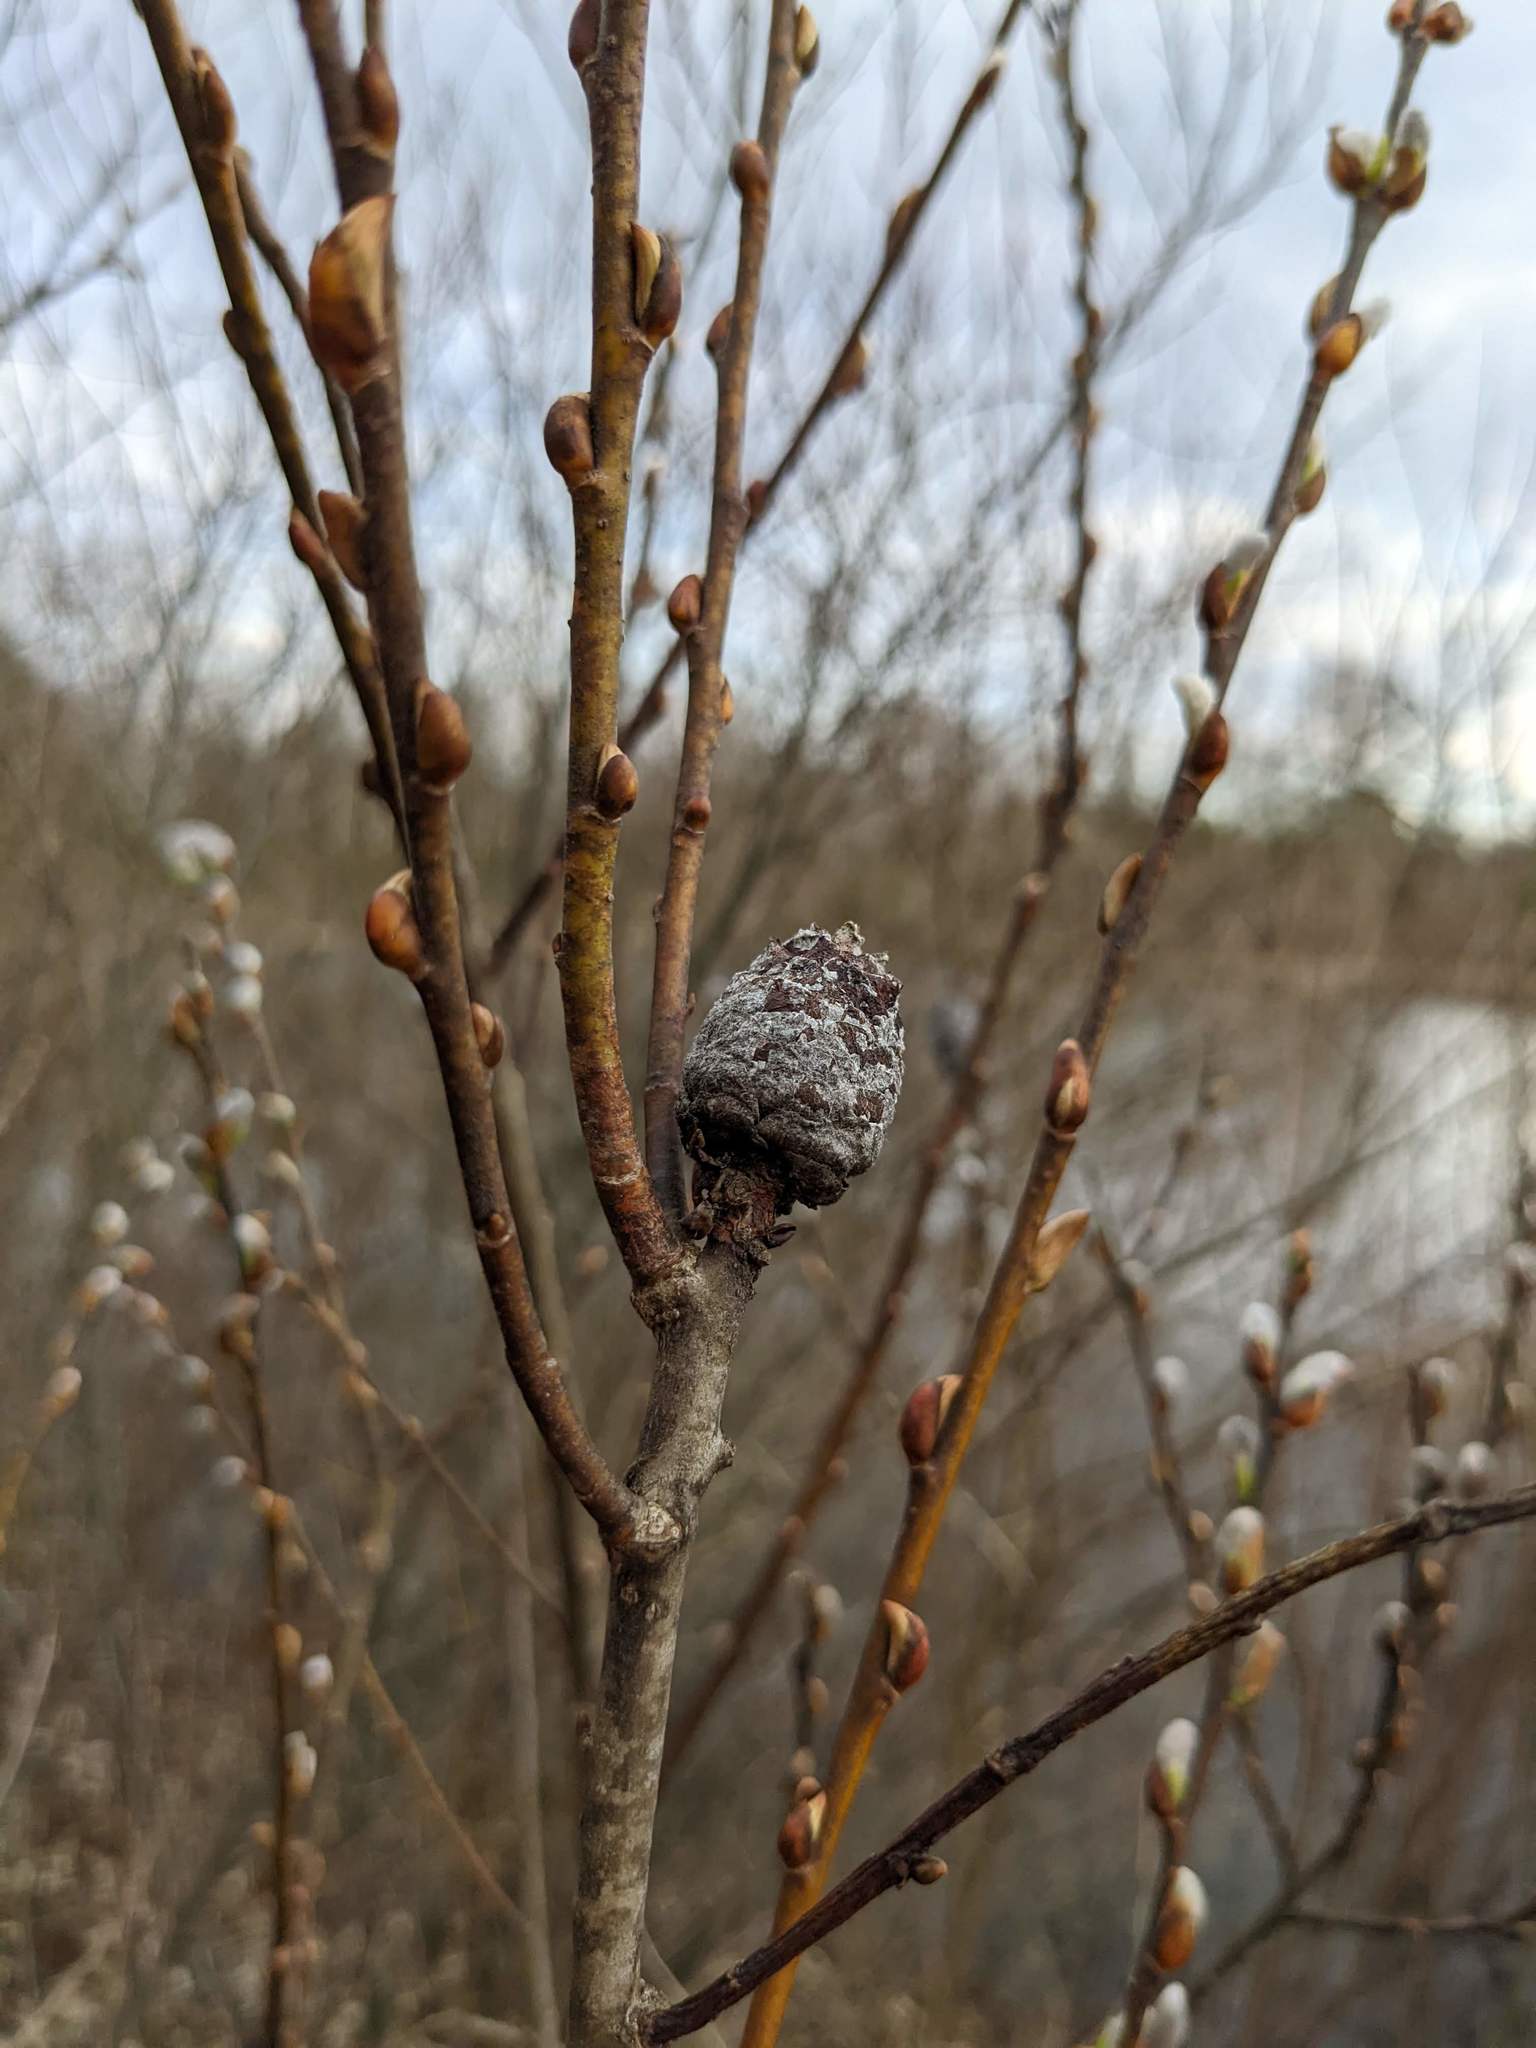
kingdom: Animalia
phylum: Arthropoda
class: Insecta
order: Diptera
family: Cecidomyiidae
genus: Rabdophaga
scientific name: Rabdophaga strobiloides
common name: Willow pinecone gall midge
